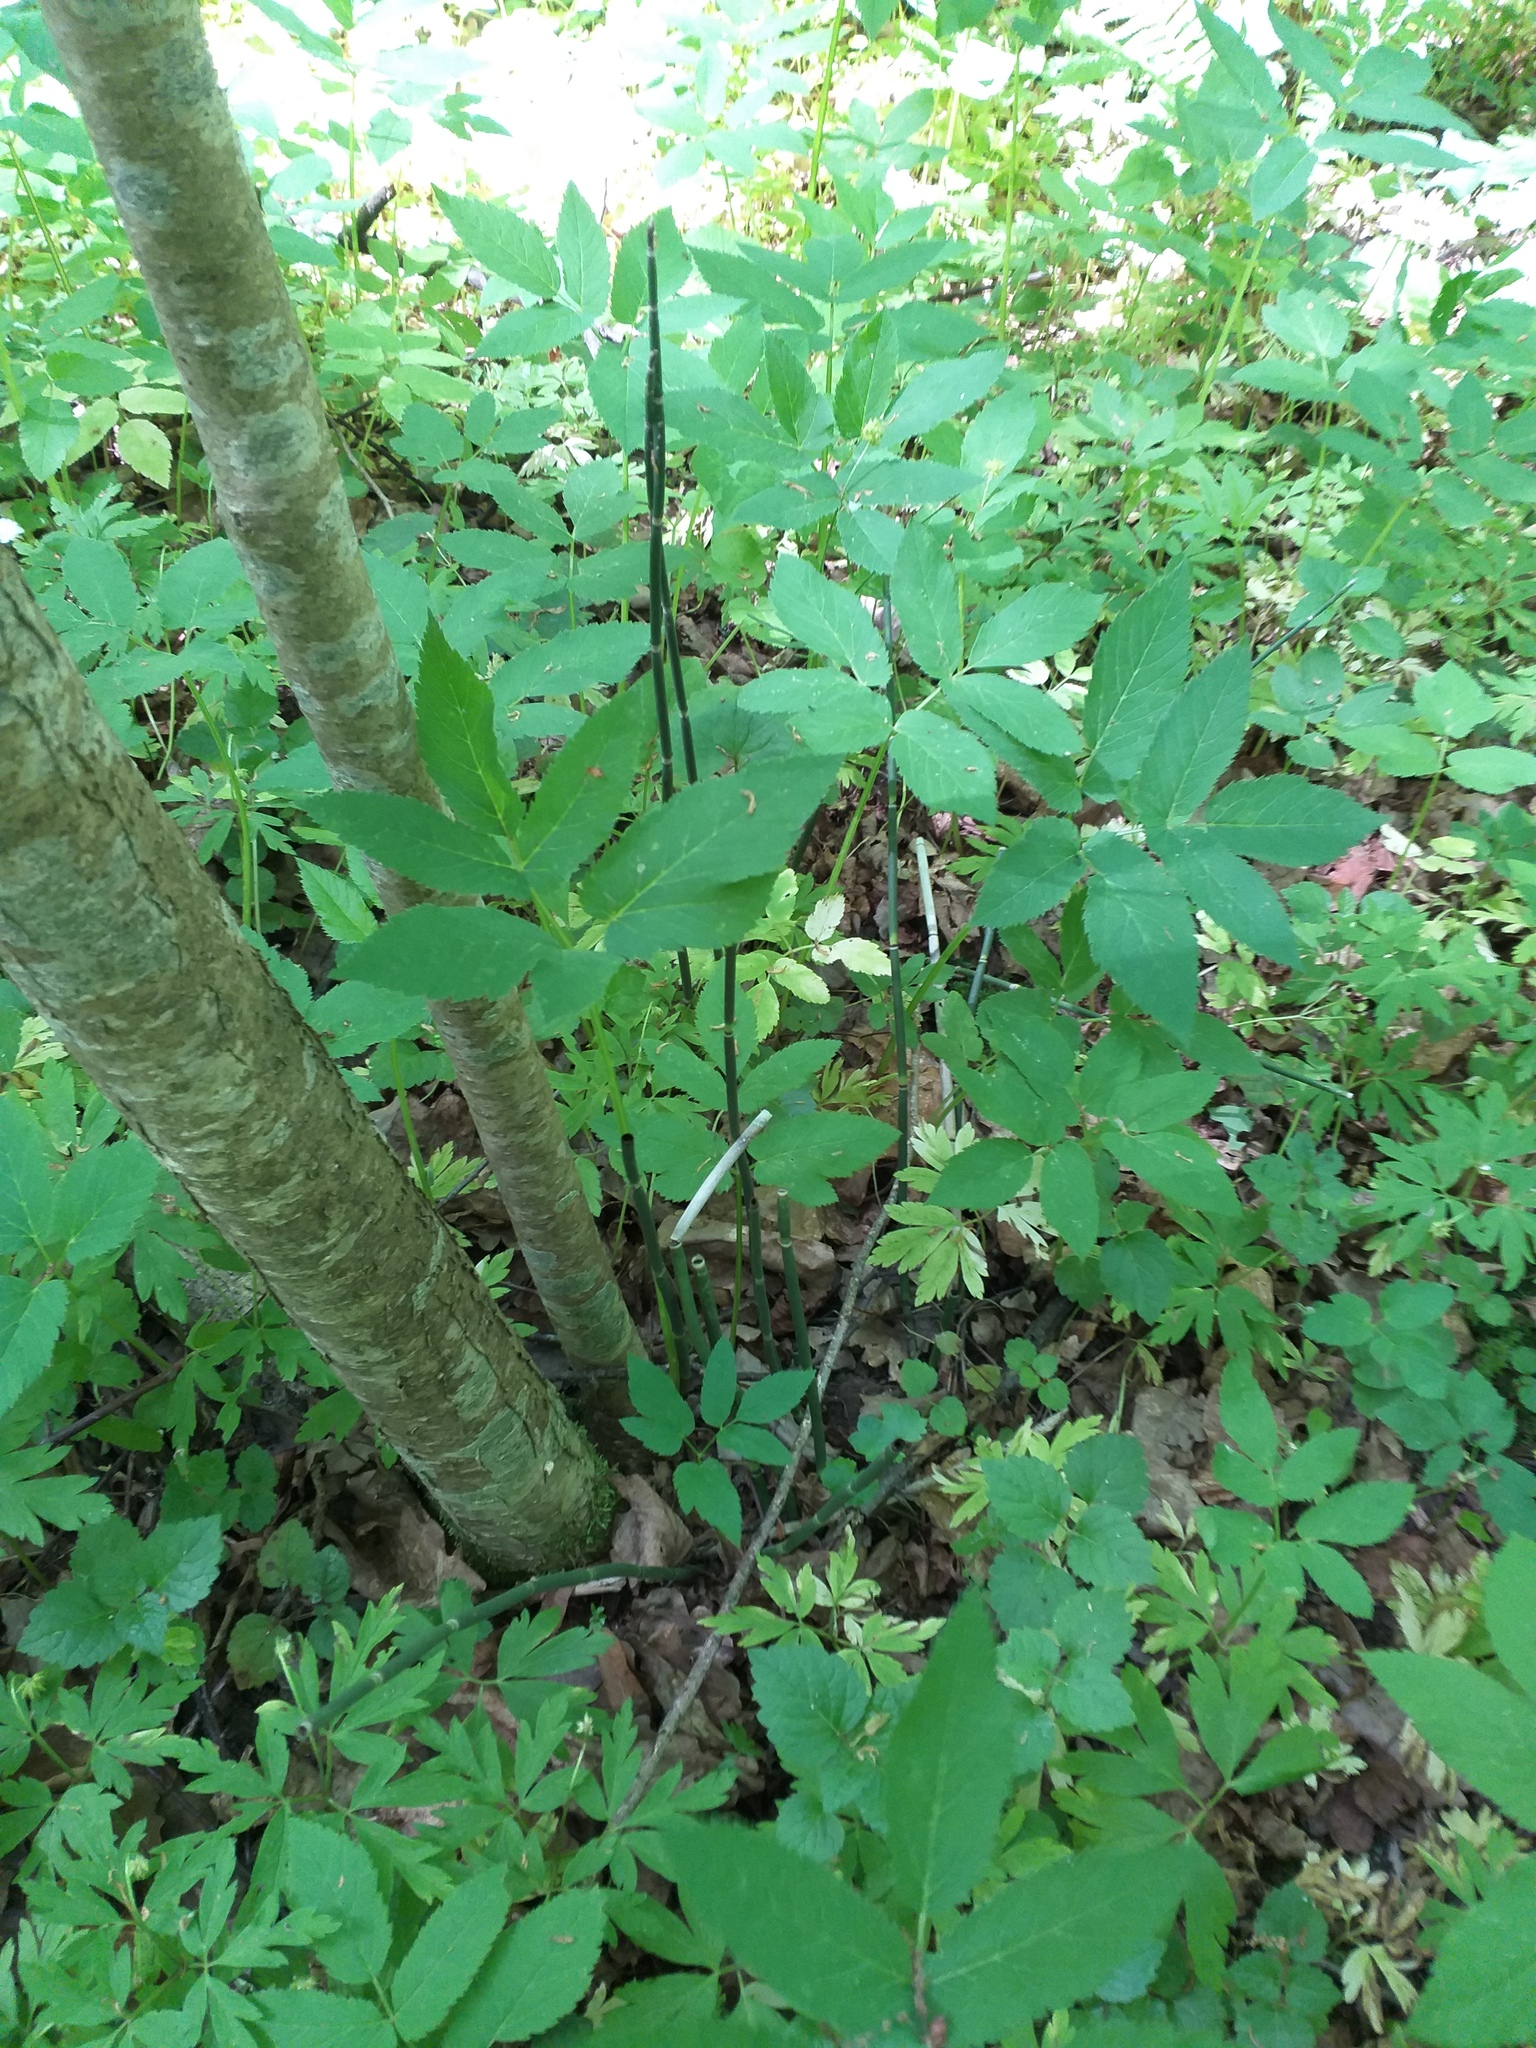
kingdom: Plantae
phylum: Tracheophyta
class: Polypodiopsida
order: Equisetales
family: Equisetaceae
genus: Equisetum
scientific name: Equisetum hyemale
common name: Rough horsetail
